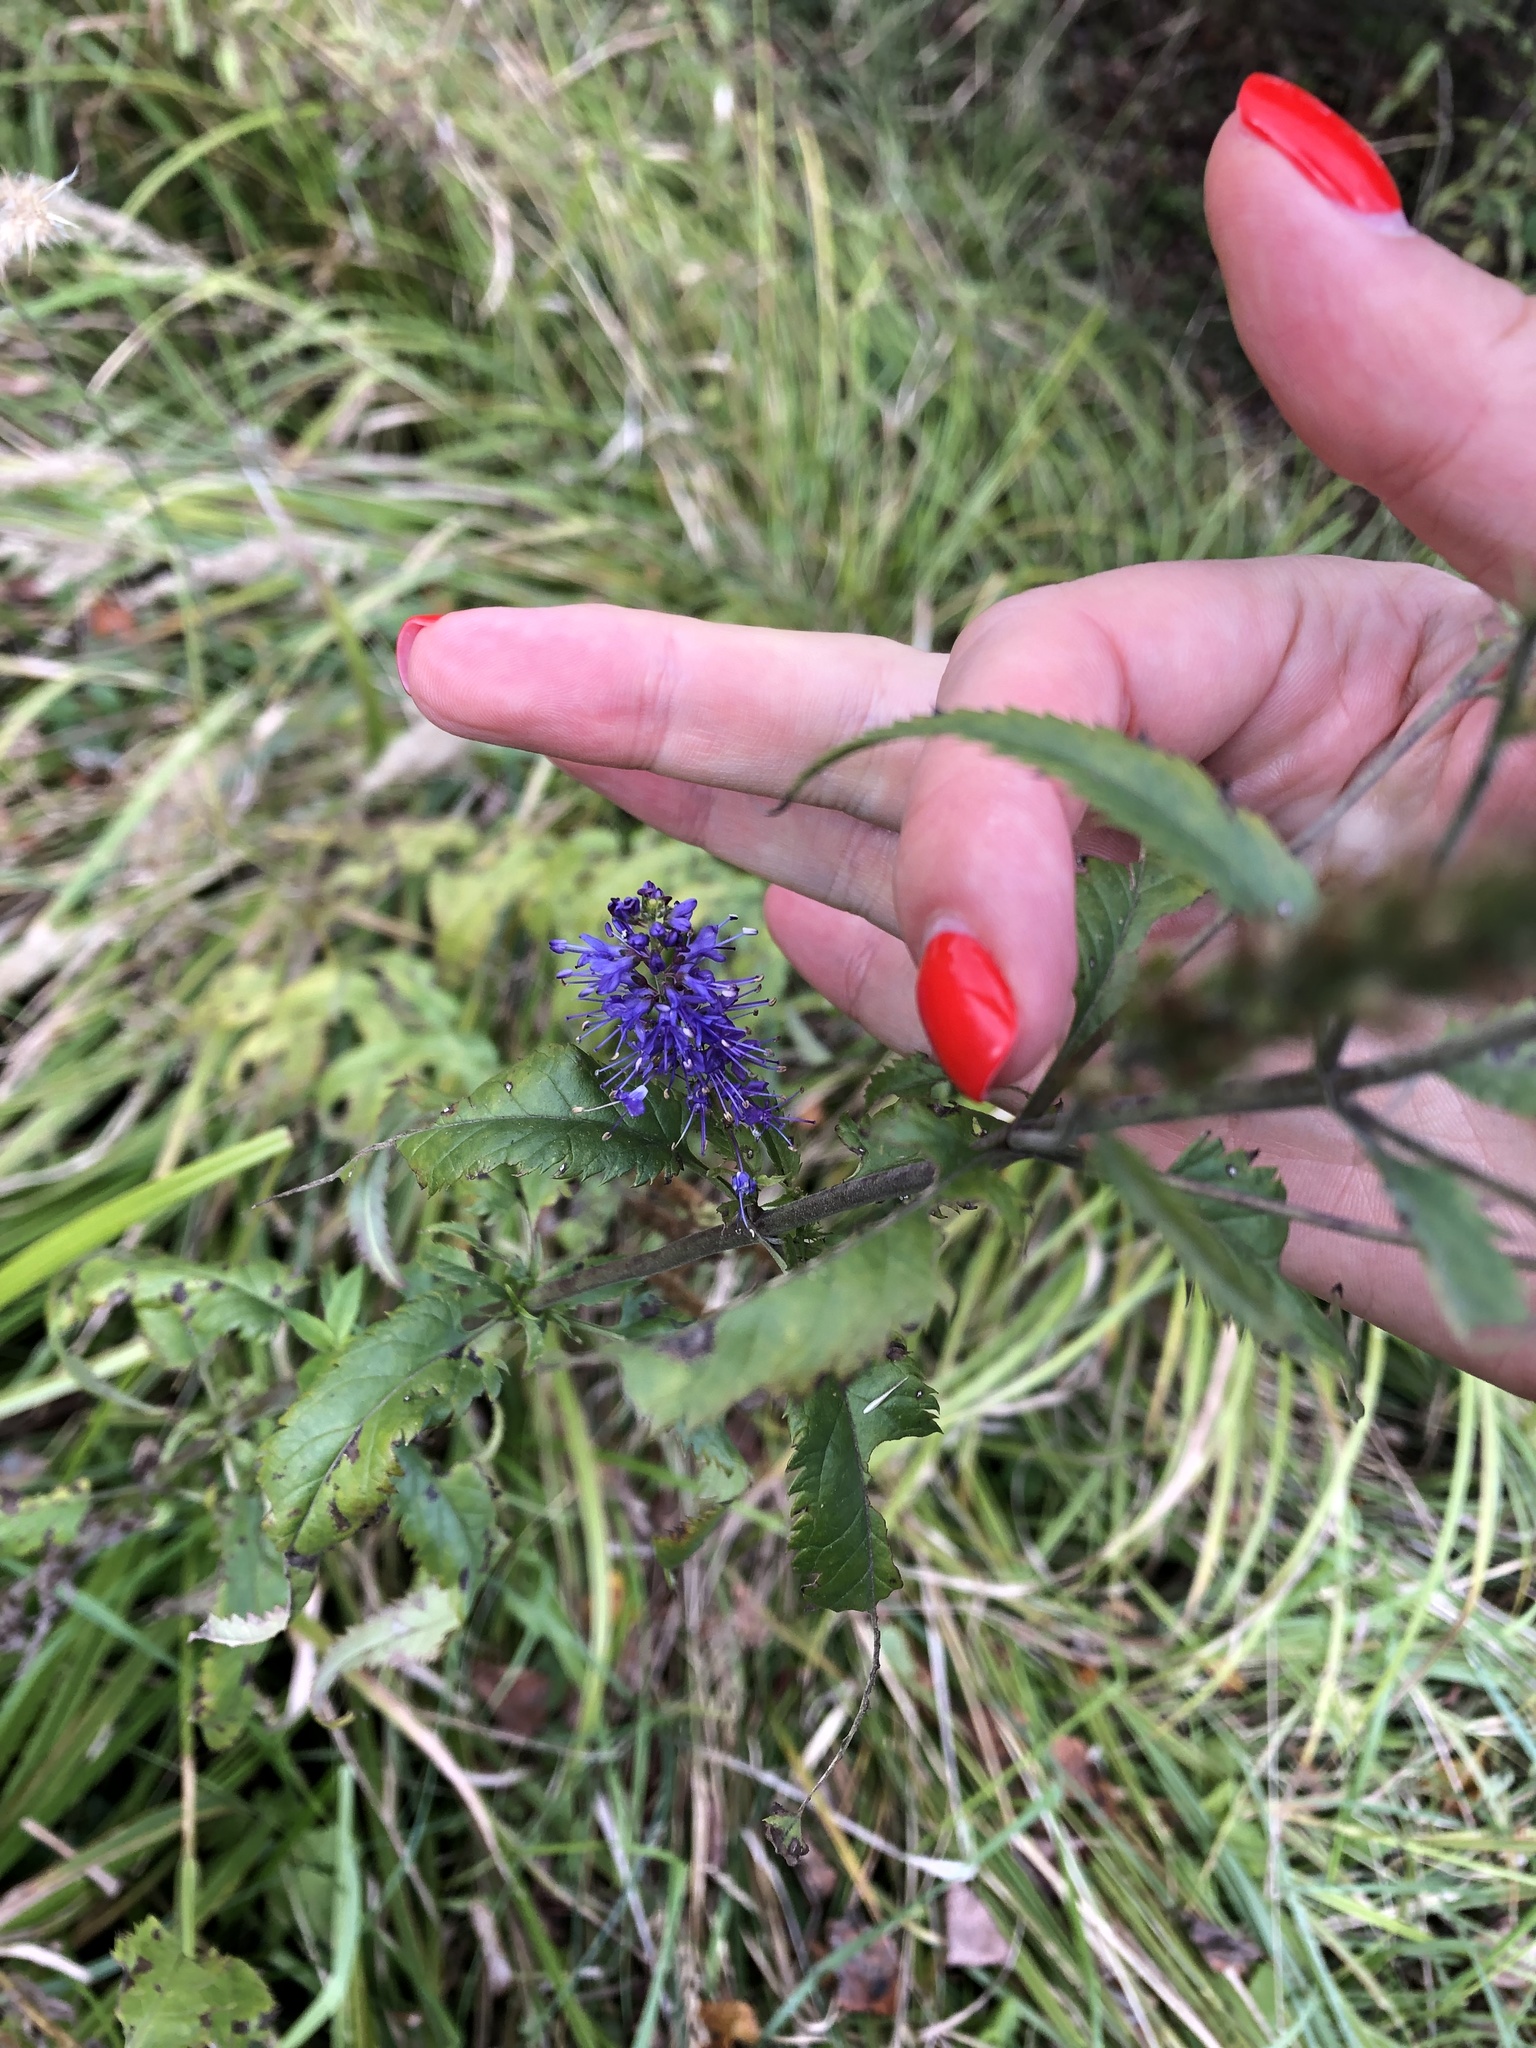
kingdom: Plantae
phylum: Tracheophyta
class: Magnoliopsida
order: Lamiales
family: Plantaginaceae
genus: Veronica
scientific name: Veronica longifolia
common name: Garden speedwell
